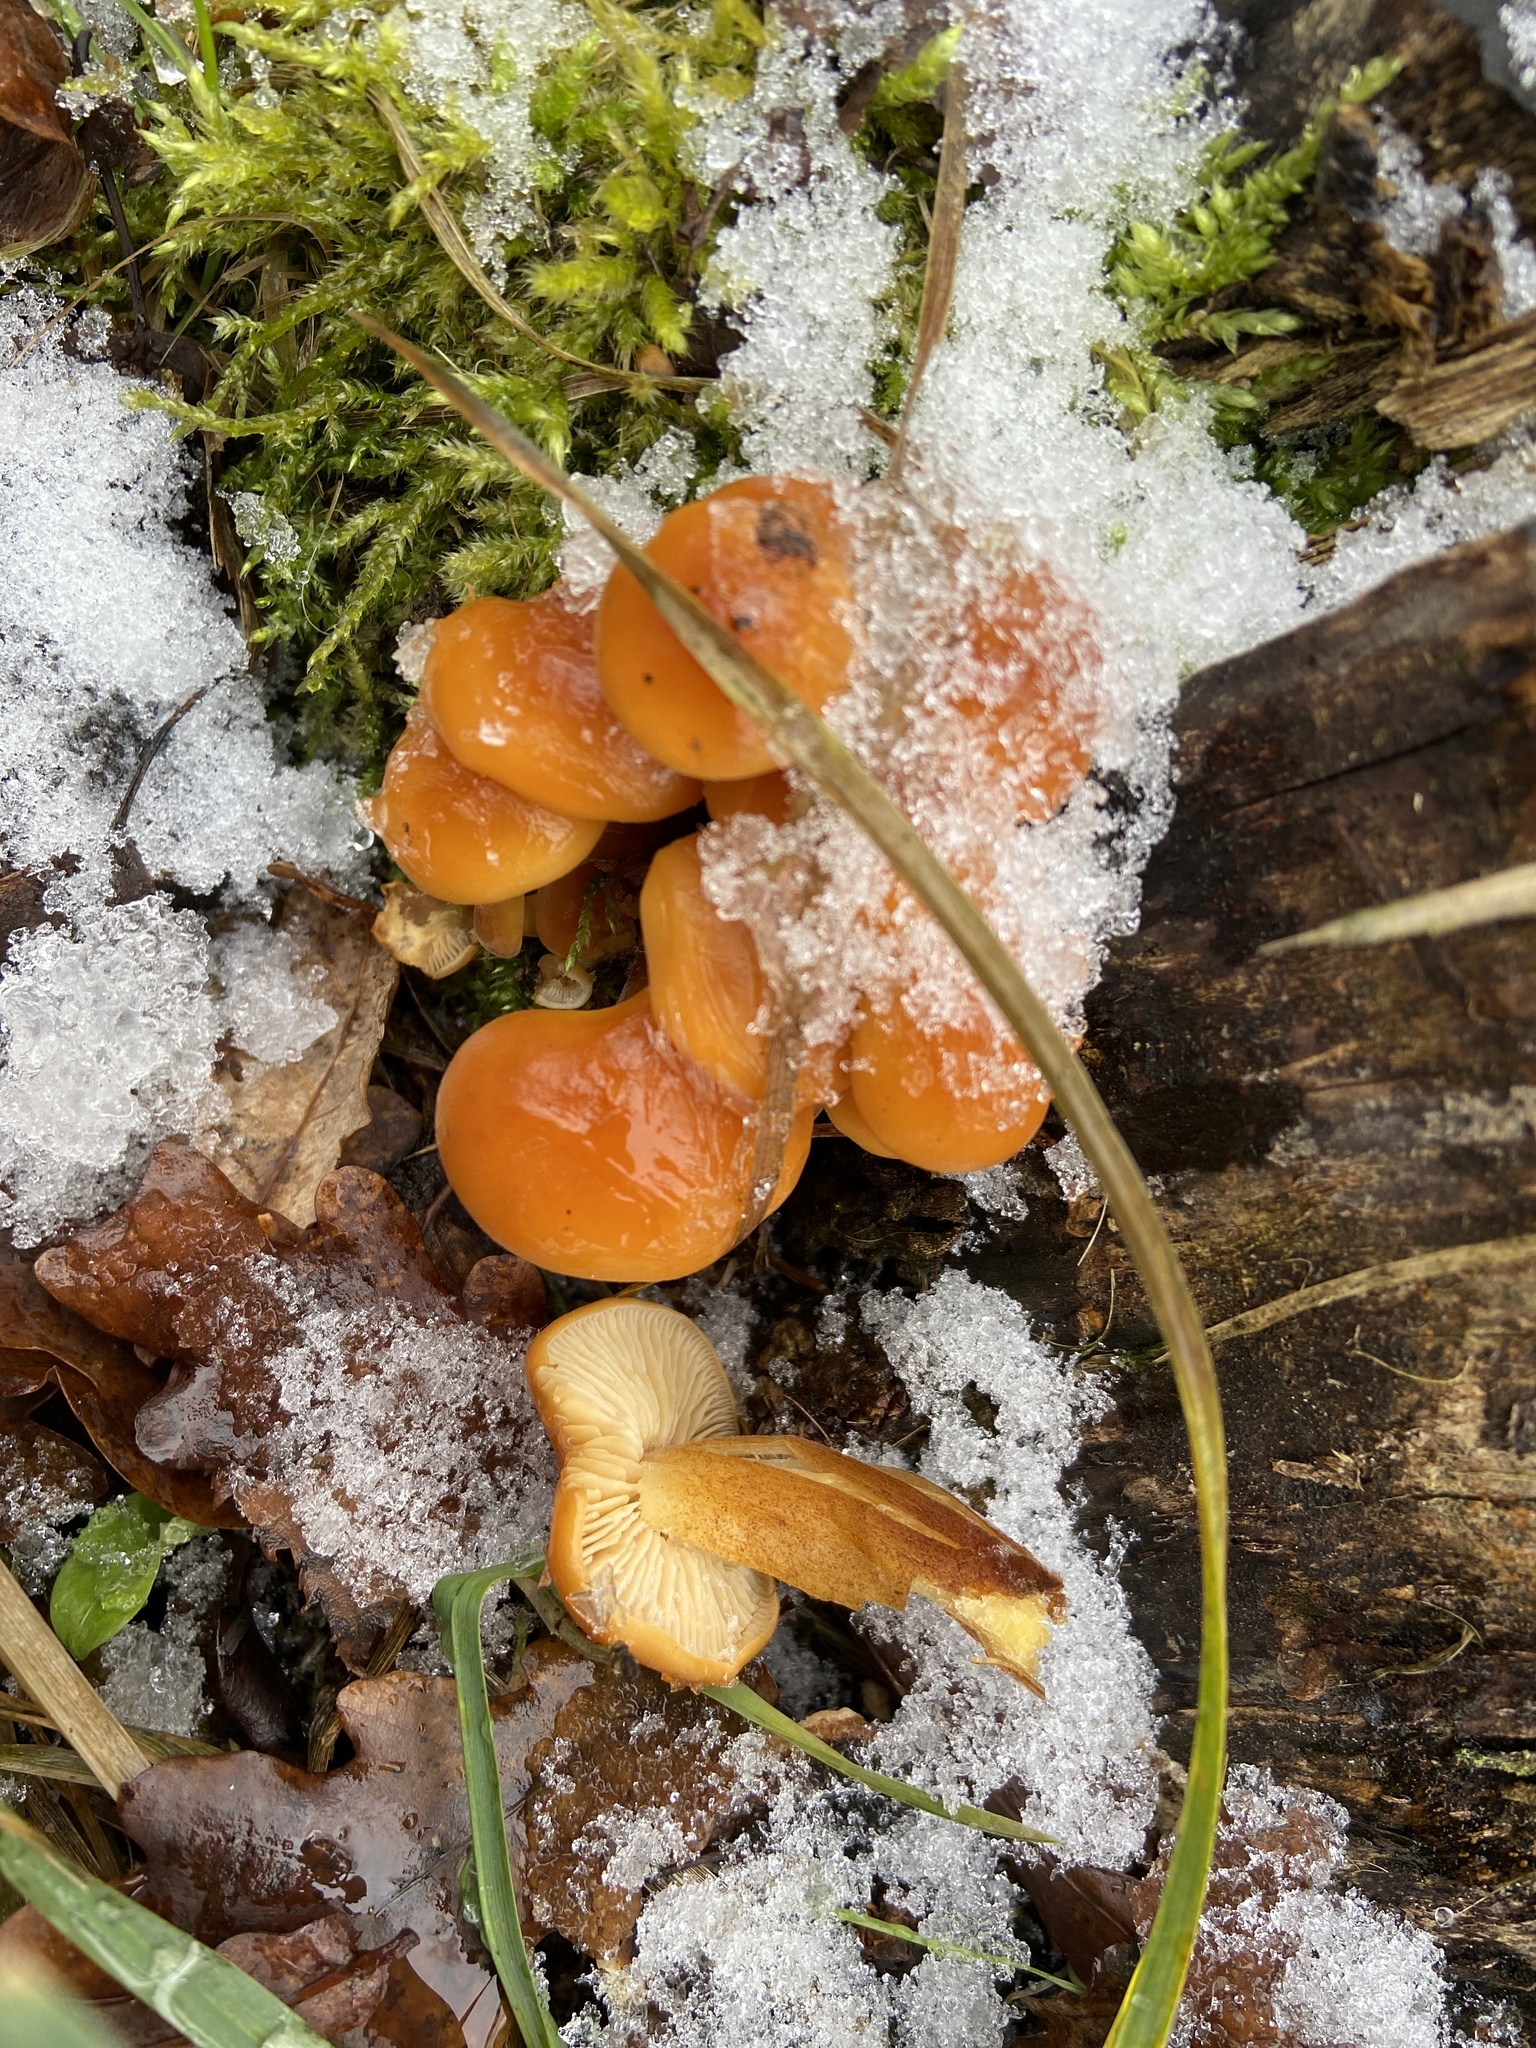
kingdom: Fungi
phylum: Basidiomycota
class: Agaricomycetes
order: Agaricales
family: Physalacriaceae
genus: Flammulina
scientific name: Flammulina
